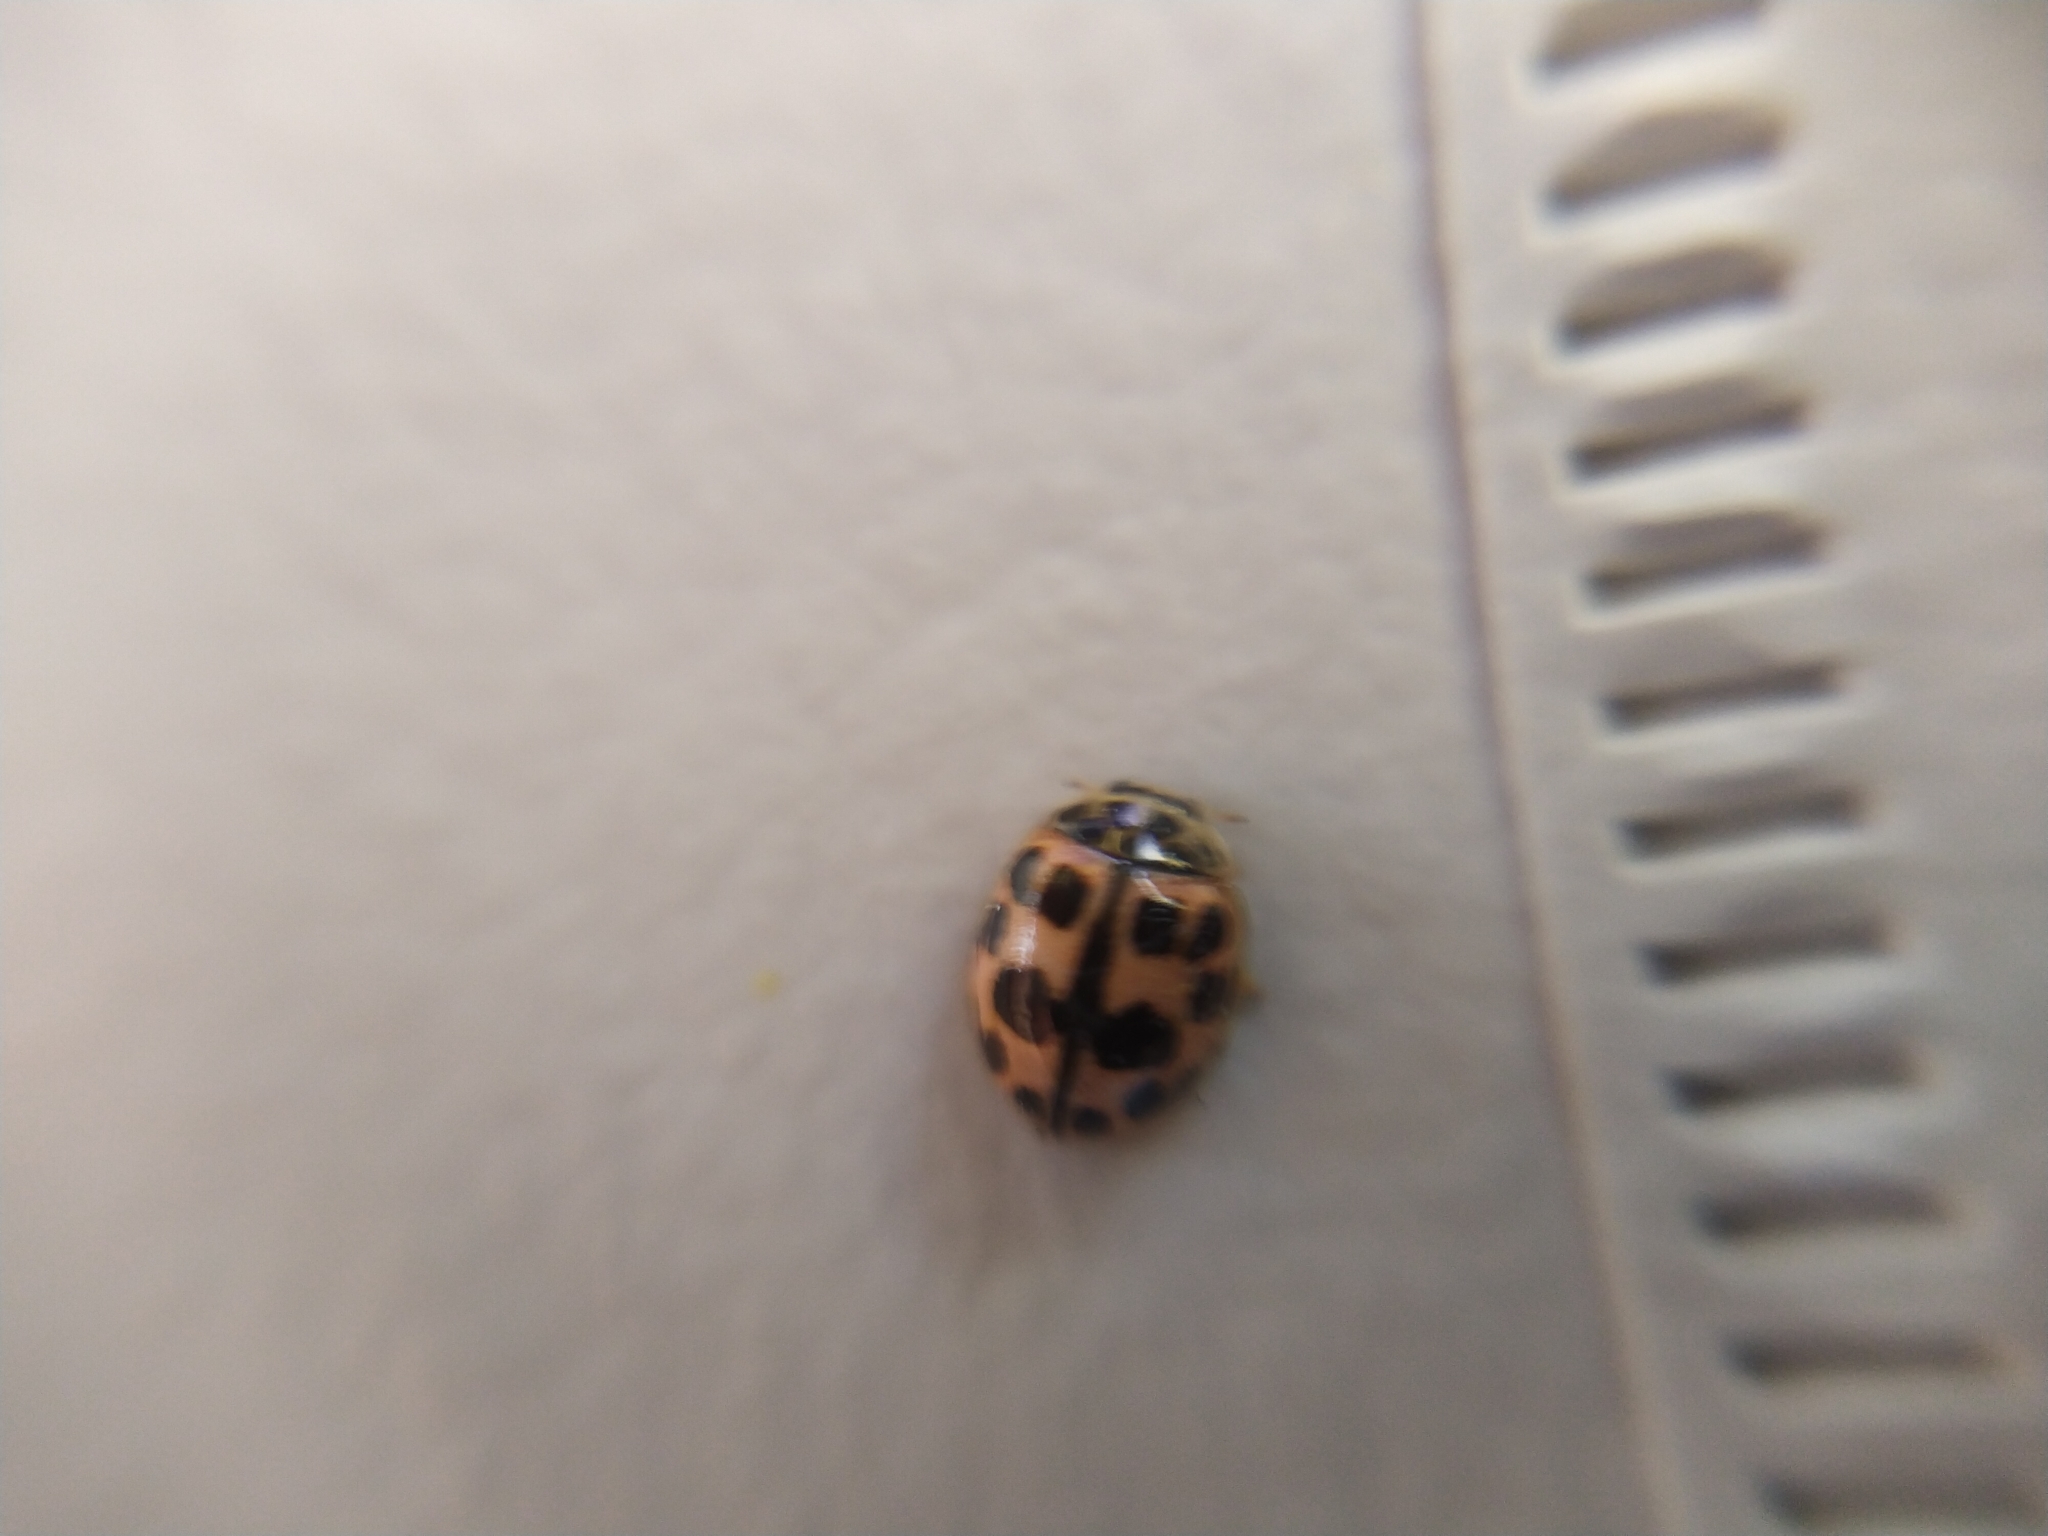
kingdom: Animalia
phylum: Arthropoda
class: Insecta
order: Coleoptera
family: Coccinellidae
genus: Oenopia
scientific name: Oenopia conglobata
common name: Ladybird beetle
